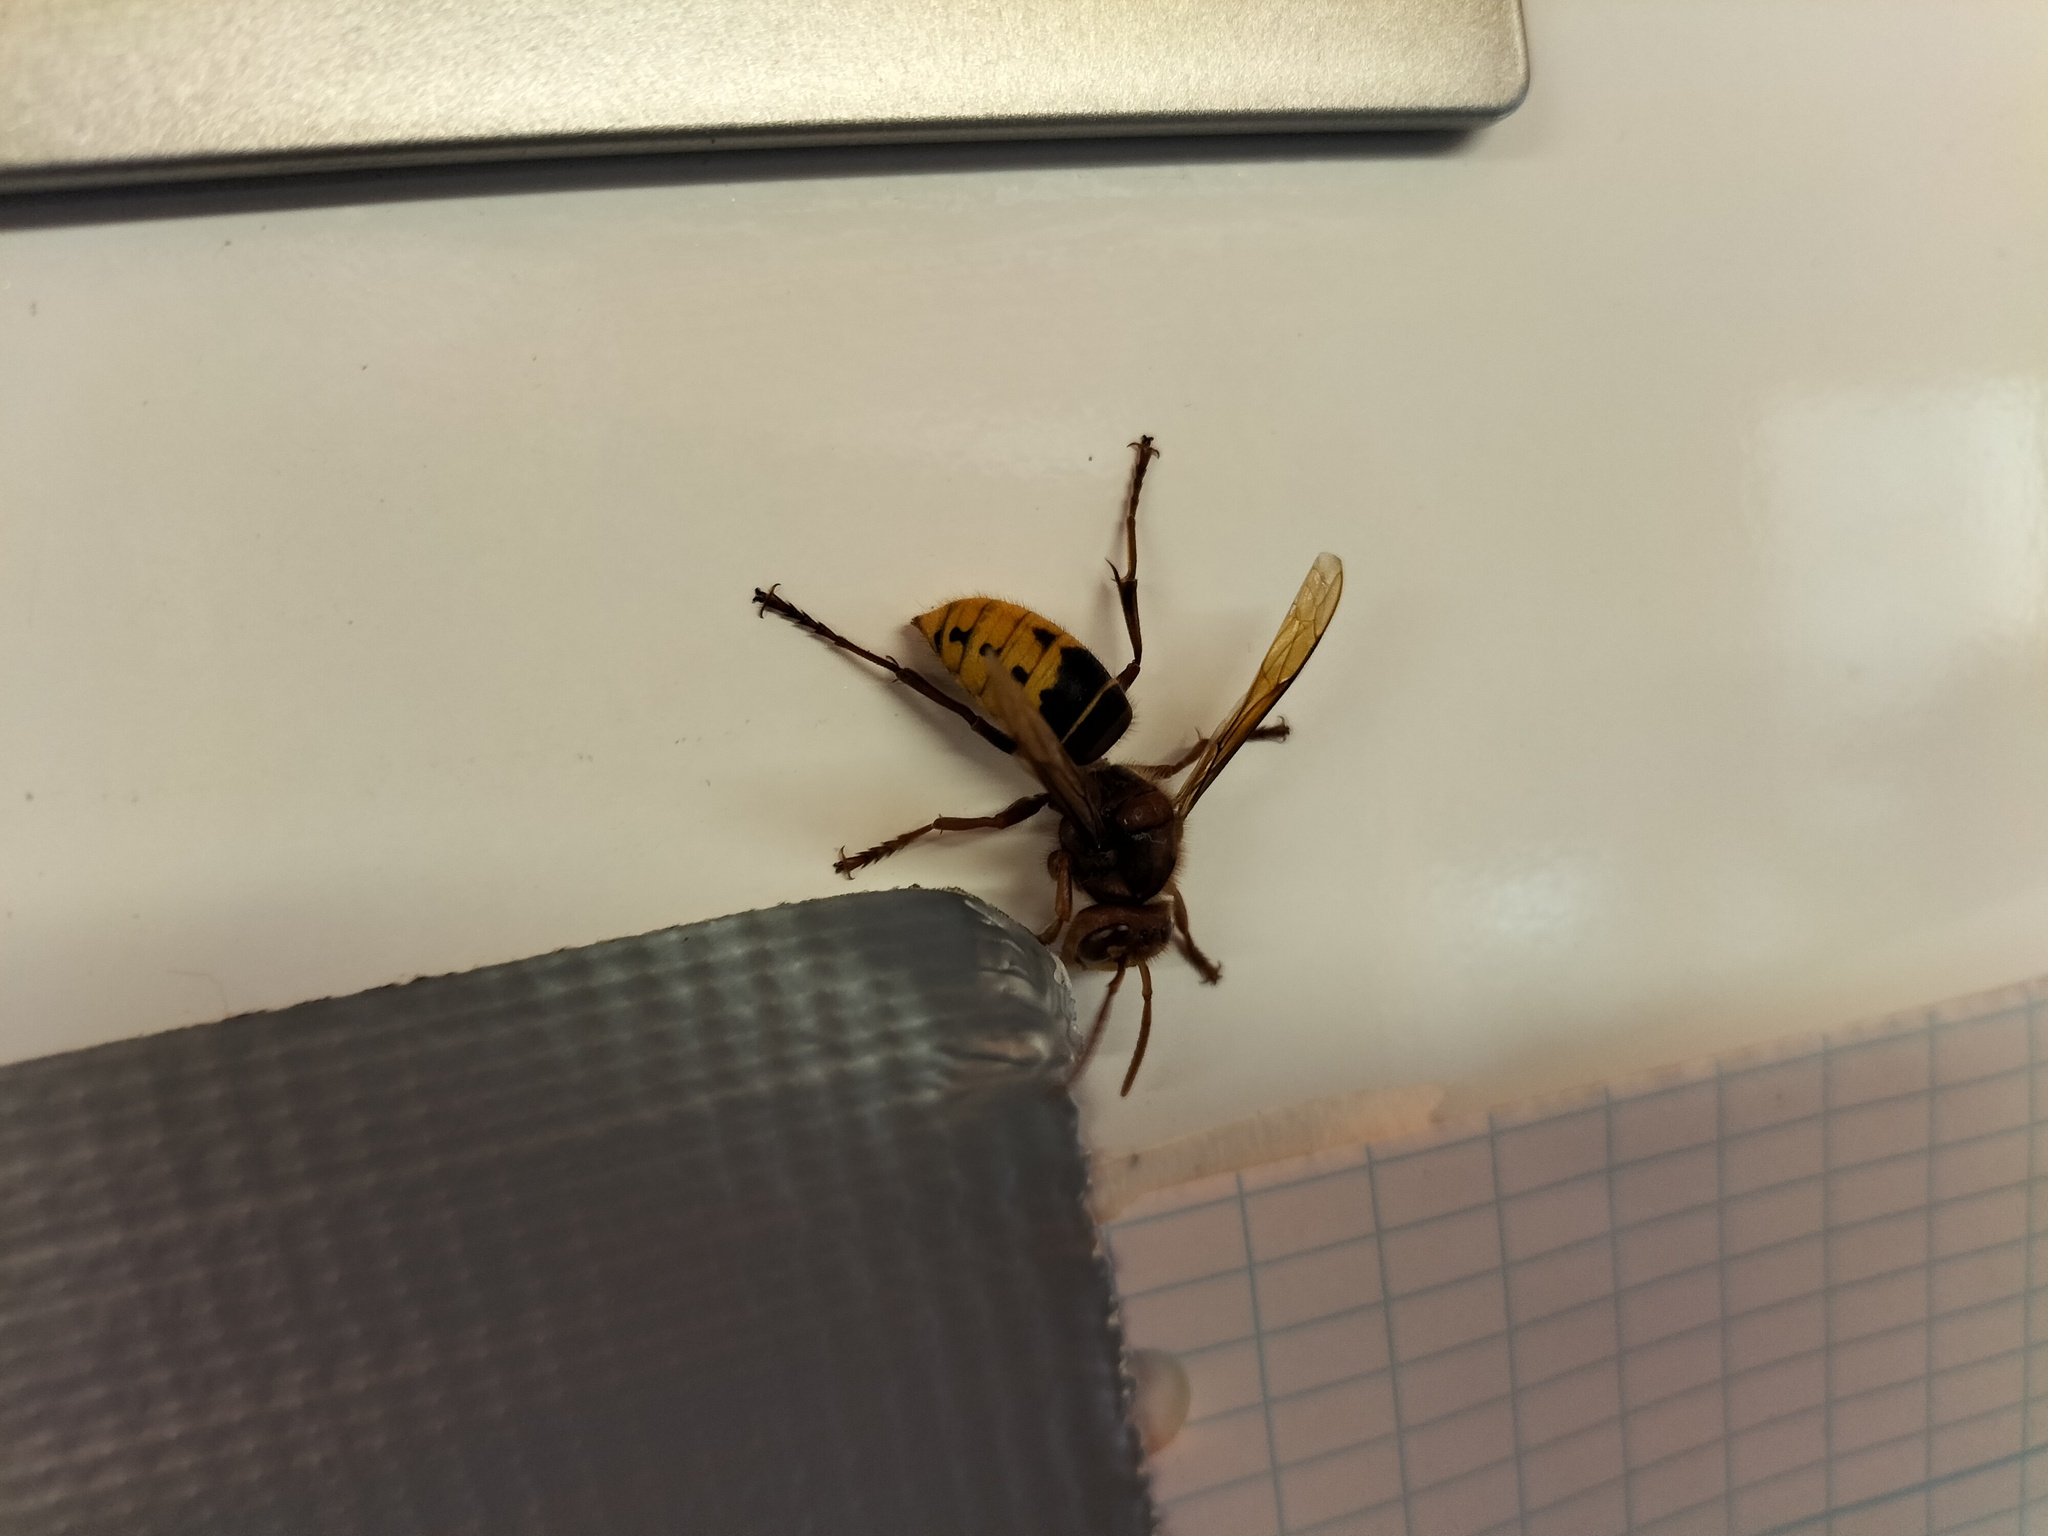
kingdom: Animalia
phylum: Arthropoda
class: Insecta
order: Hymenoptera
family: Vespidae
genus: Vespa
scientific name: Vespa crabro
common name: Hornet
